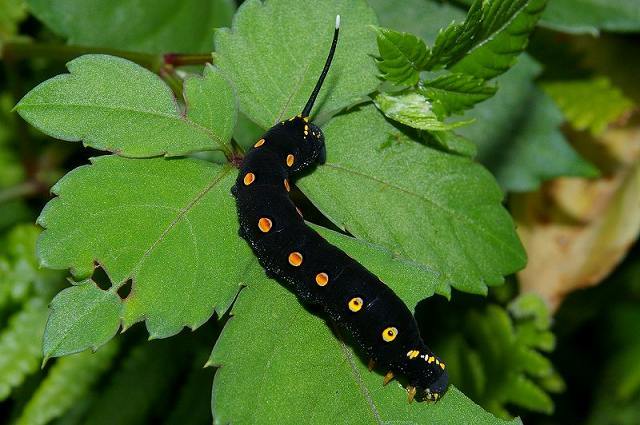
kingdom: Animalia
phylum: Arthropoda
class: Insecta
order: Lepidoptera
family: Sphingidae
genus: Theretra
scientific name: Theretra oldenlandiae
